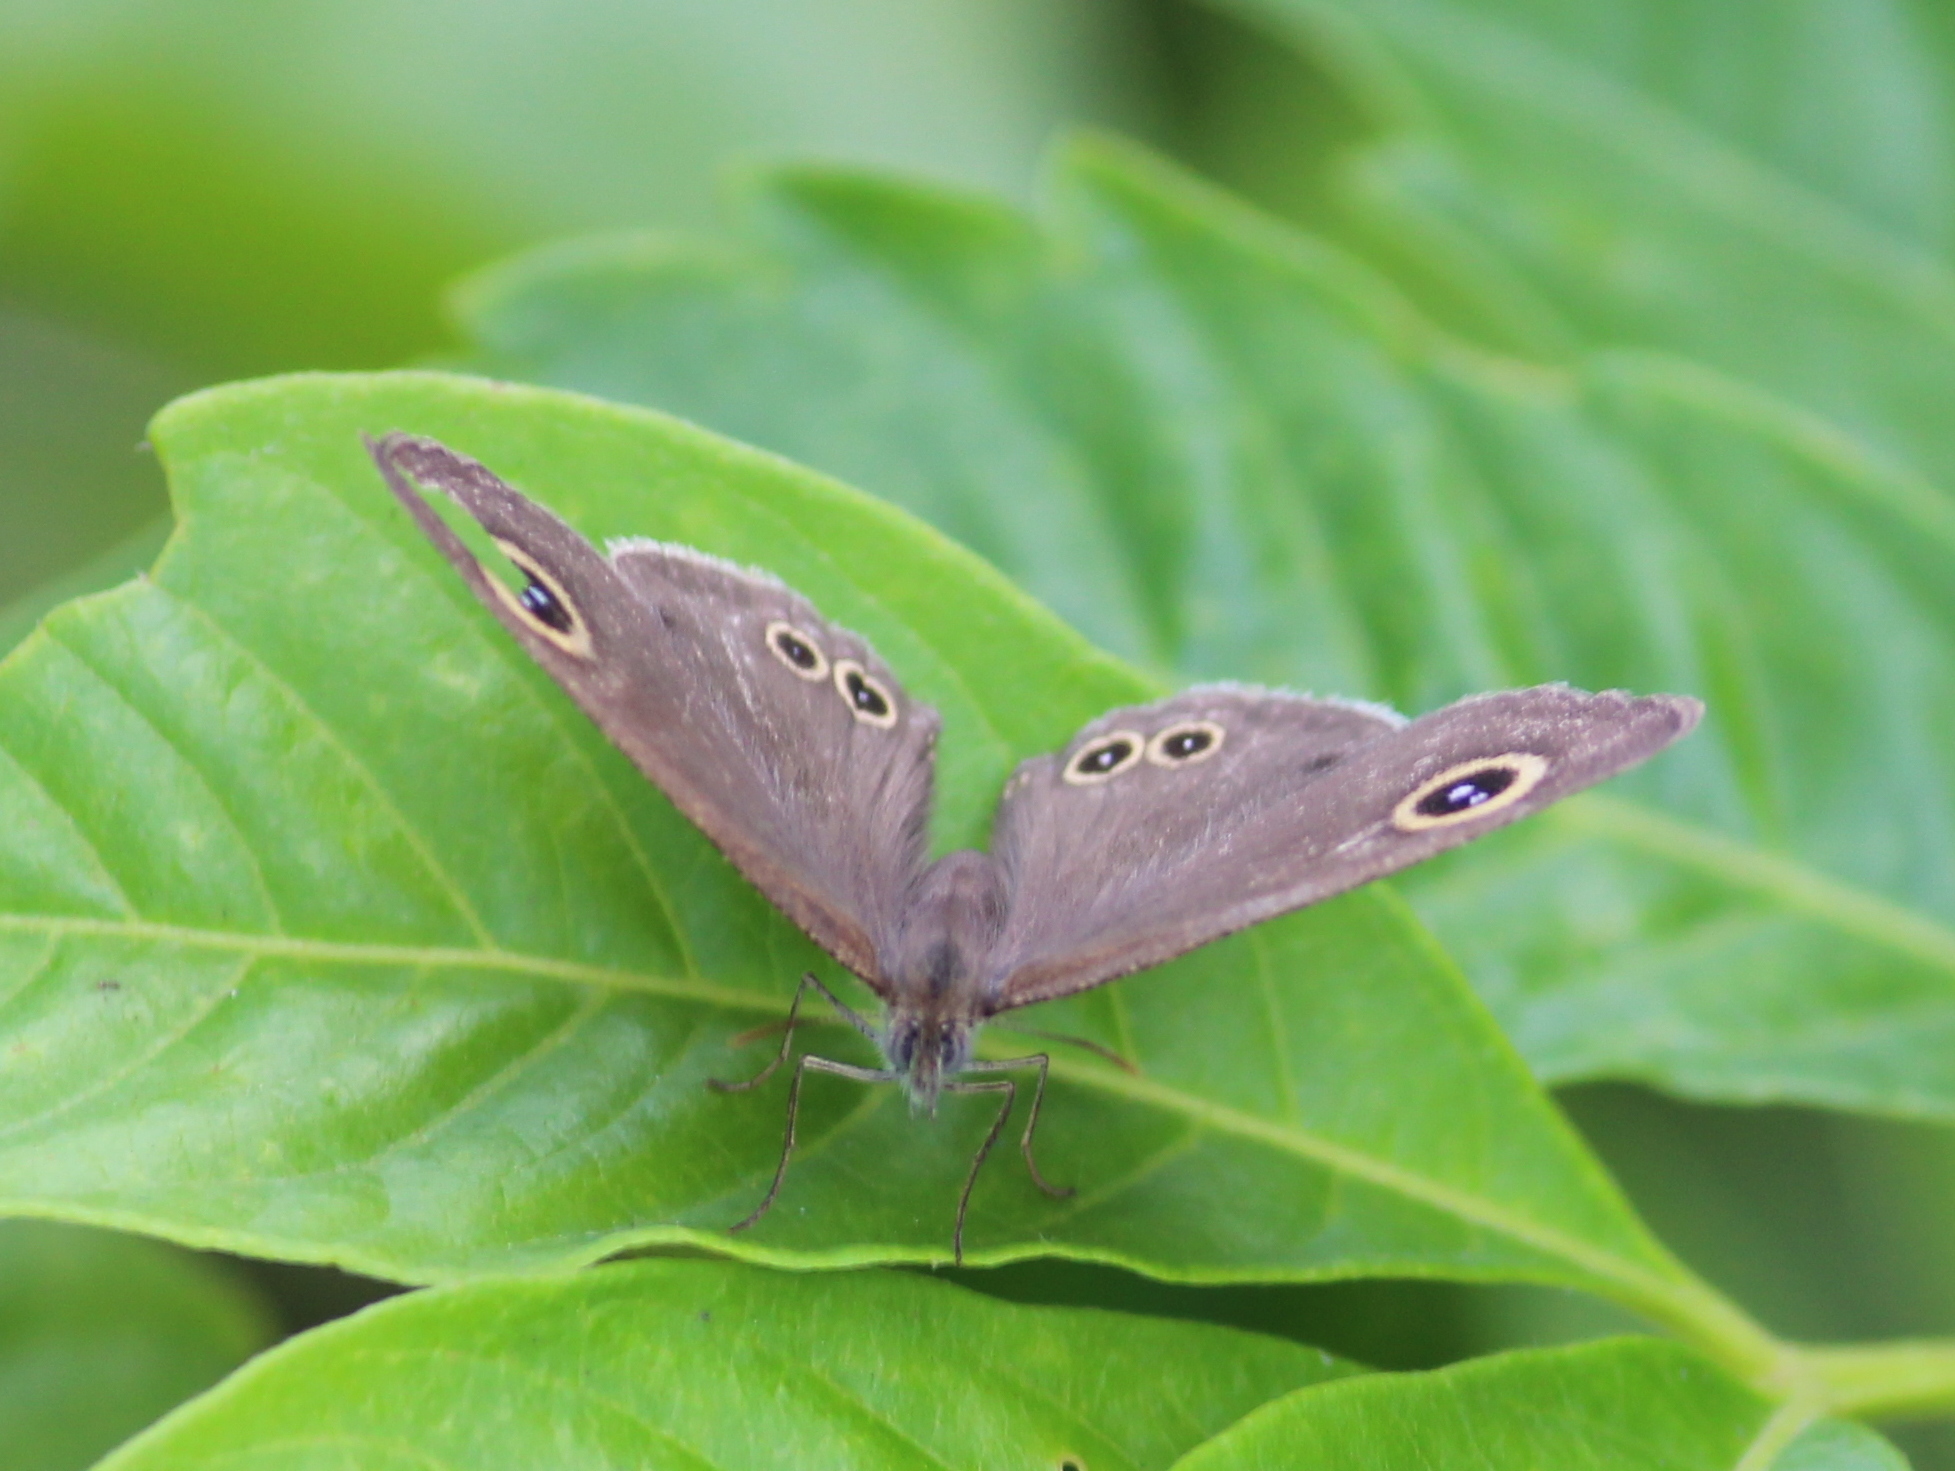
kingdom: Animalia
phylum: Arthropoda
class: Insecta
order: Lepidoptera
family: Nymphalidae
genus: Ypthima
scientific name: Ypthima huebneri
